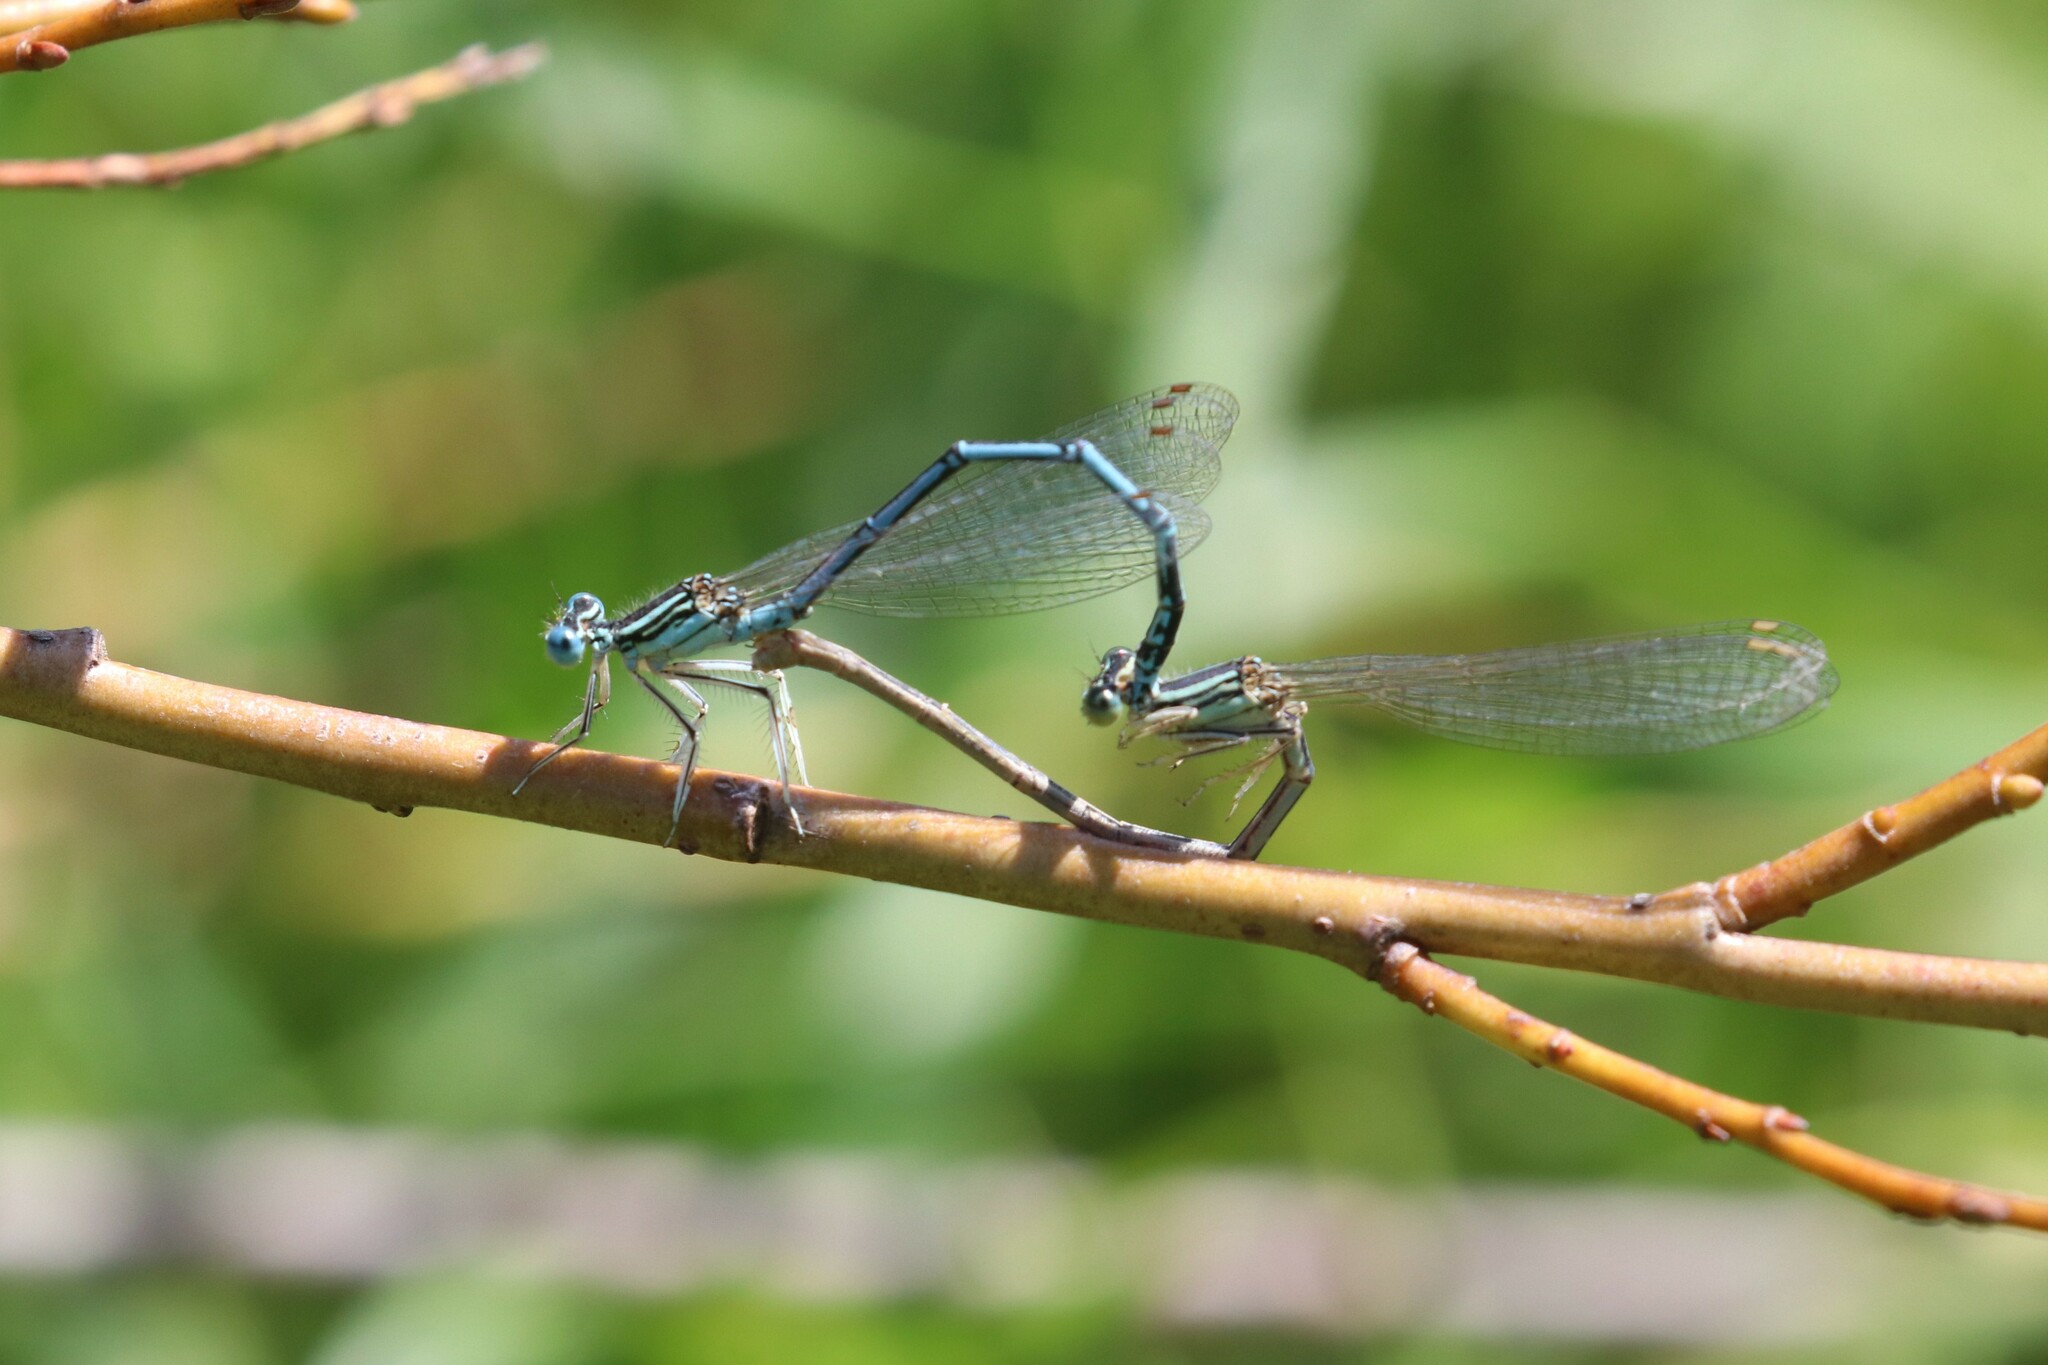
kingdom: Animalia
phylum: Arthropoda
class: Insecta
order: Odonata
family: Platycnemididae
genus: Platycnemis
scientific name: Platycnemis pennipes
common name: White-legged damselfly
